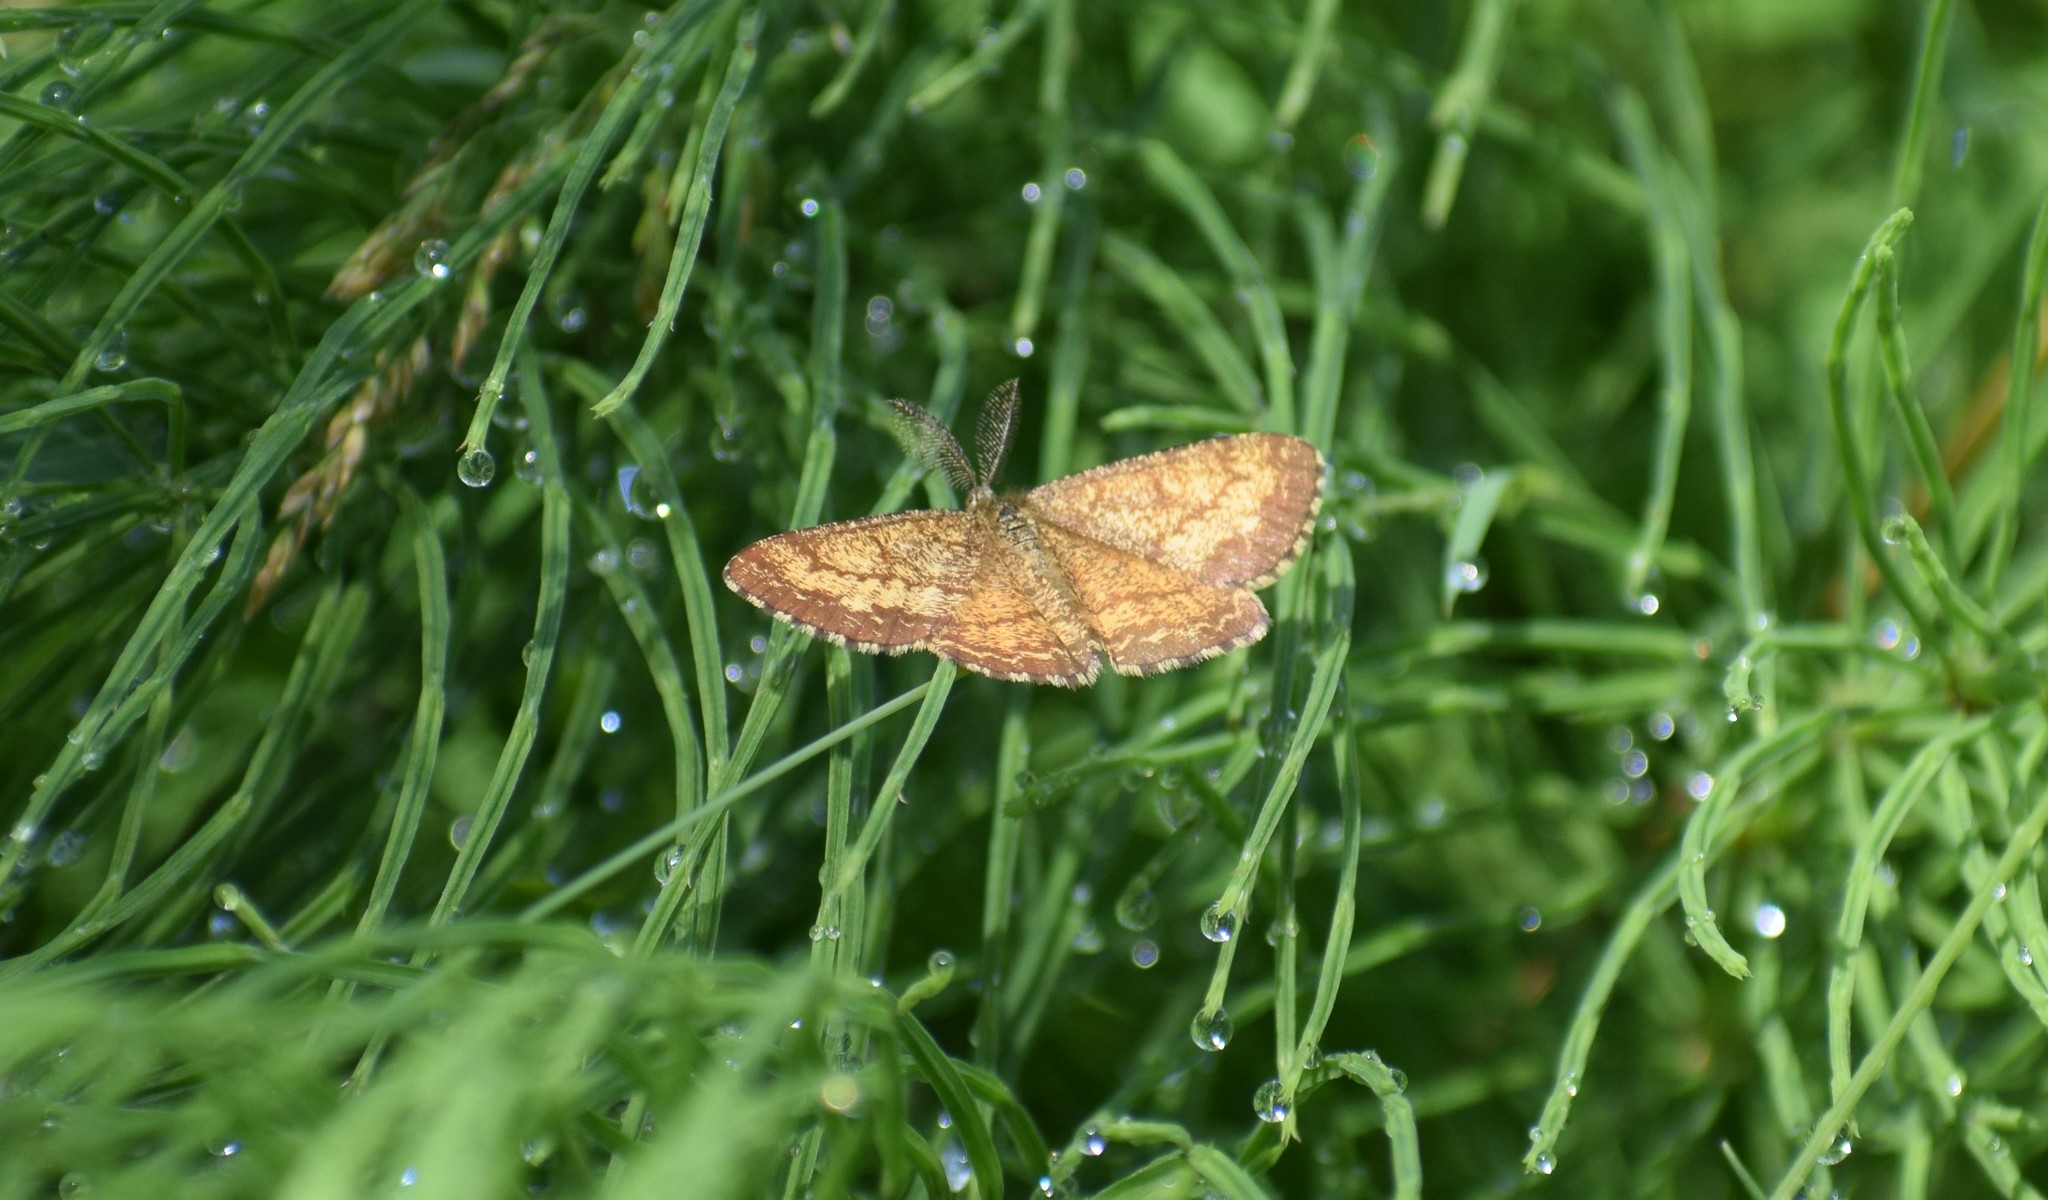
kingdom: Animalia
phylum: Arthropoda
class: Insecta
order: Lepidoptera
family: Geometridae
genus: Ematurga
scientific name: Ematurga atomaria
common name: Common heath
